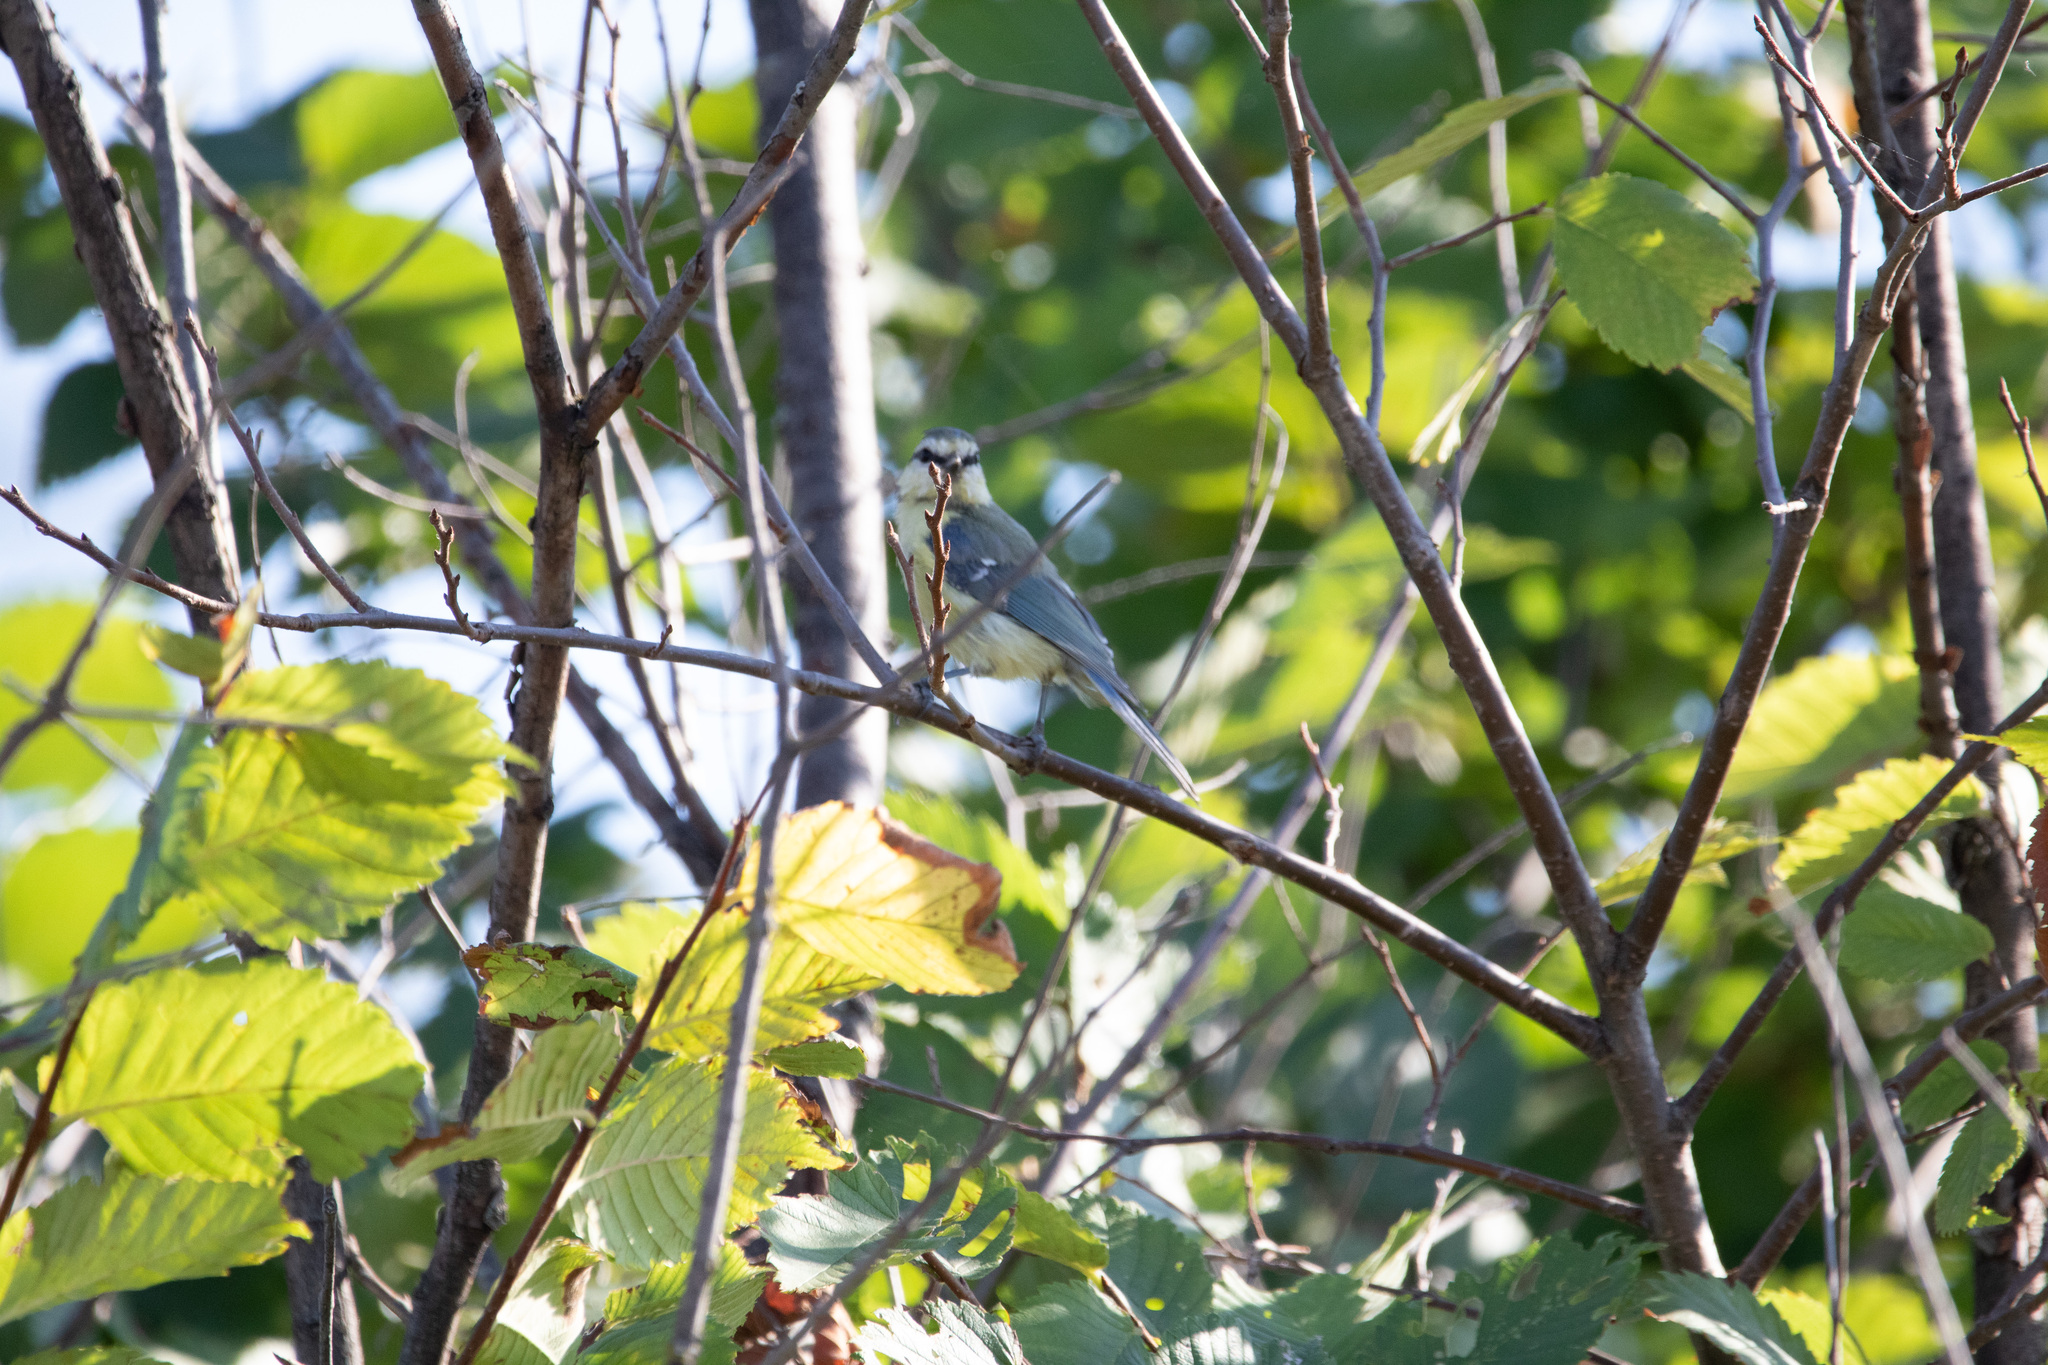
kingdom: Animalia
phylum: Chordata
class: Aves
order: Passeriformes
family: Paridae
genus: Cyanistes
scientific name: Cyanistes caeruleus
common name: Eurasian blue tit
